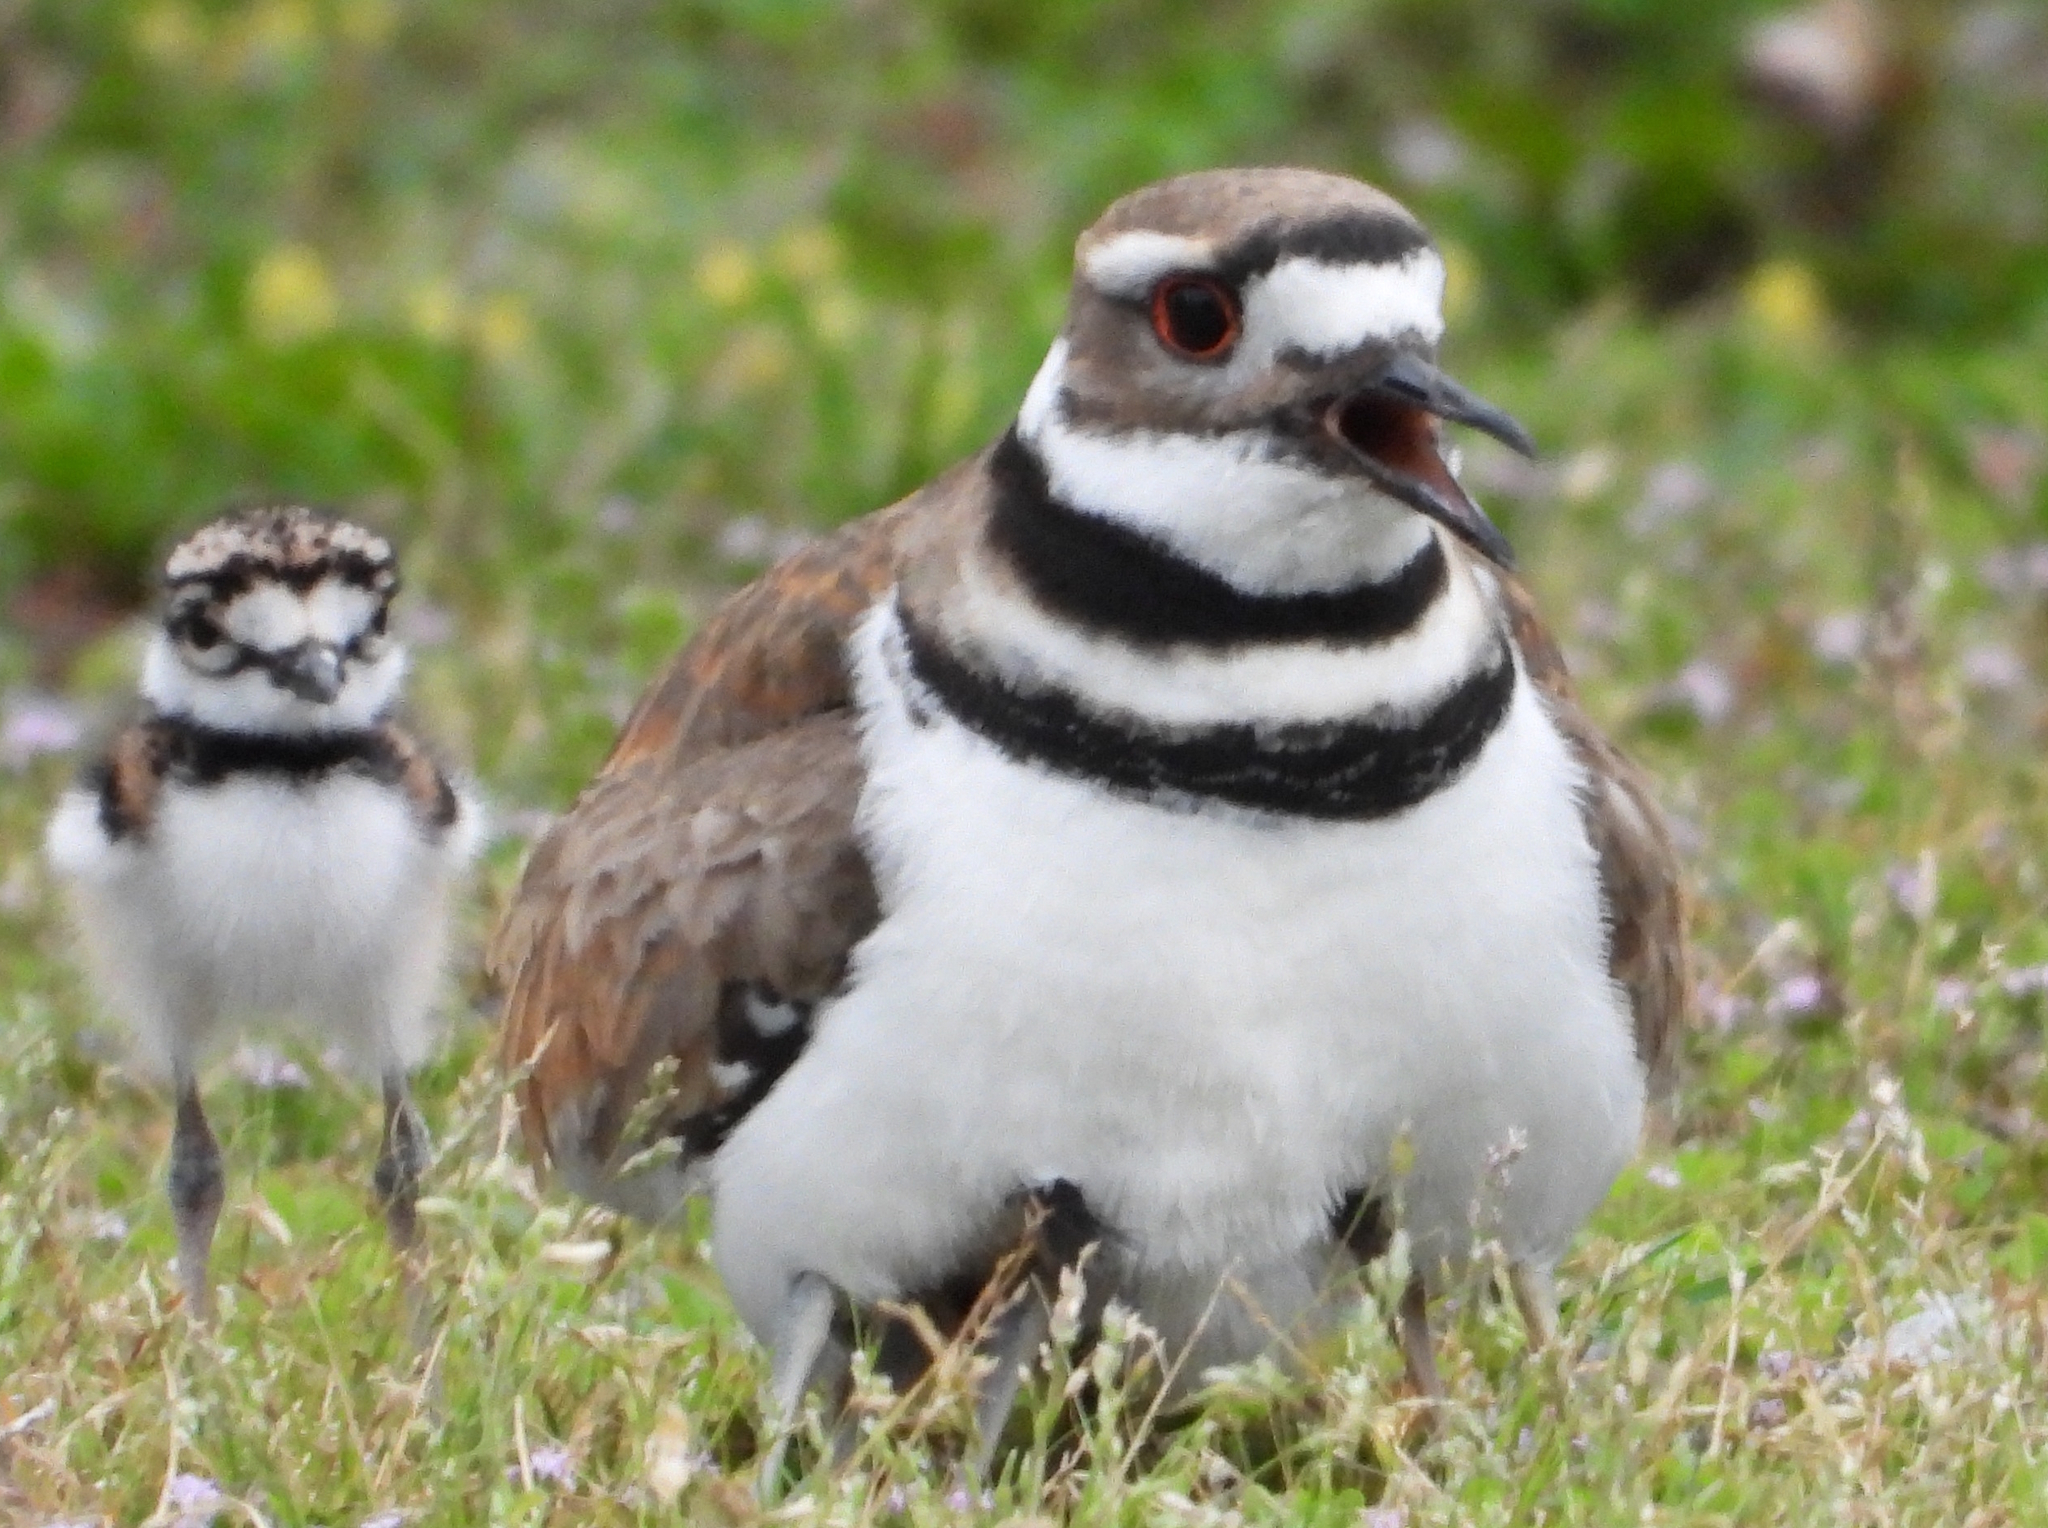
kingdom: Animalia
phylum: Chordata
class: Aves
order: Charadriiformes
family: Charadriidae
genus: Charadrius
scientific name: Charadrius vociferus
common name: Killdeer
